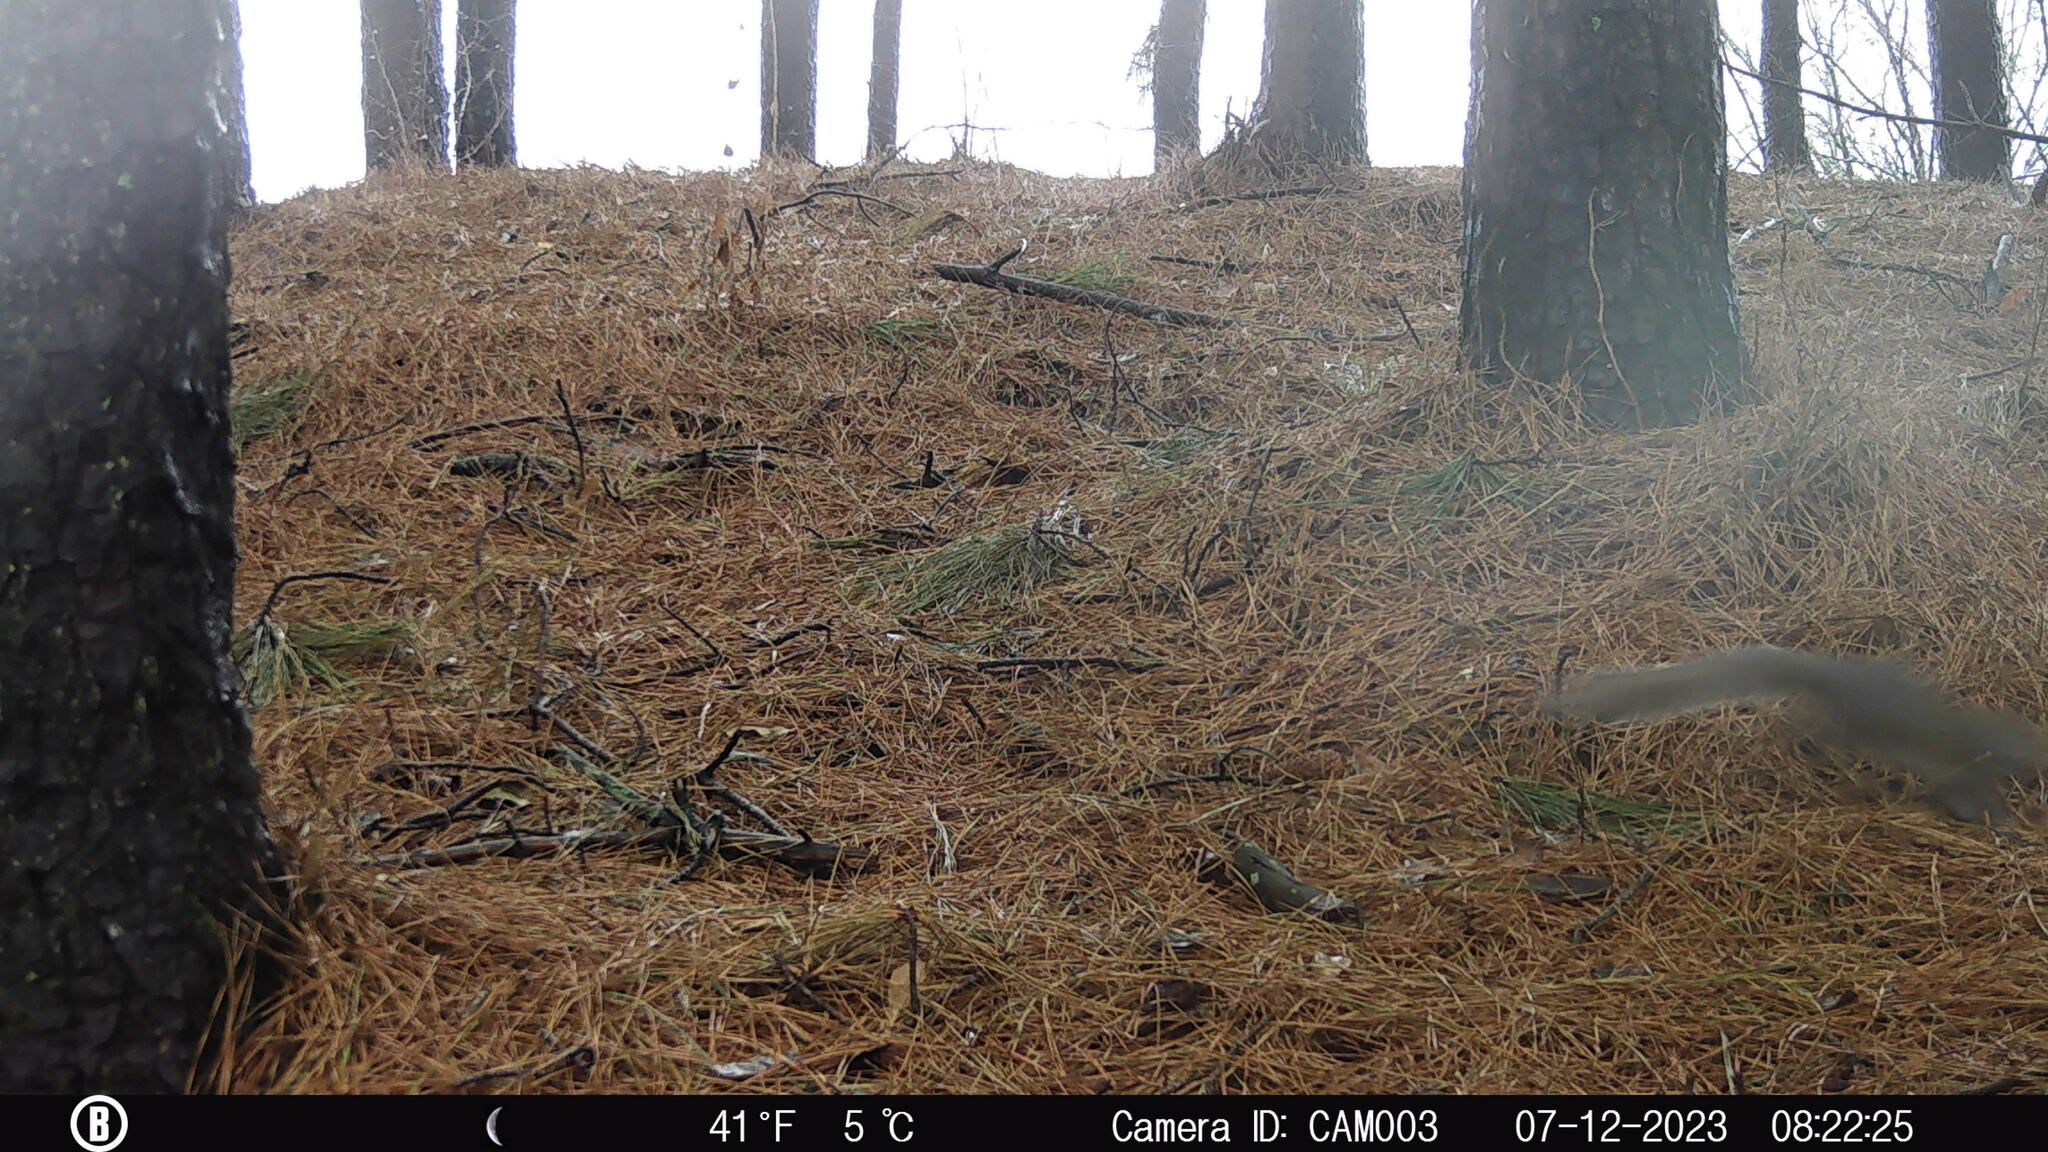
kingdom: Animalia
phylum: Chordata
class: Mammalia
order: Rodentia
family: Sciuridae
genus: Sciurus
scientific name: Sciurus carolinensis
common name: Eastern gray squirrel
